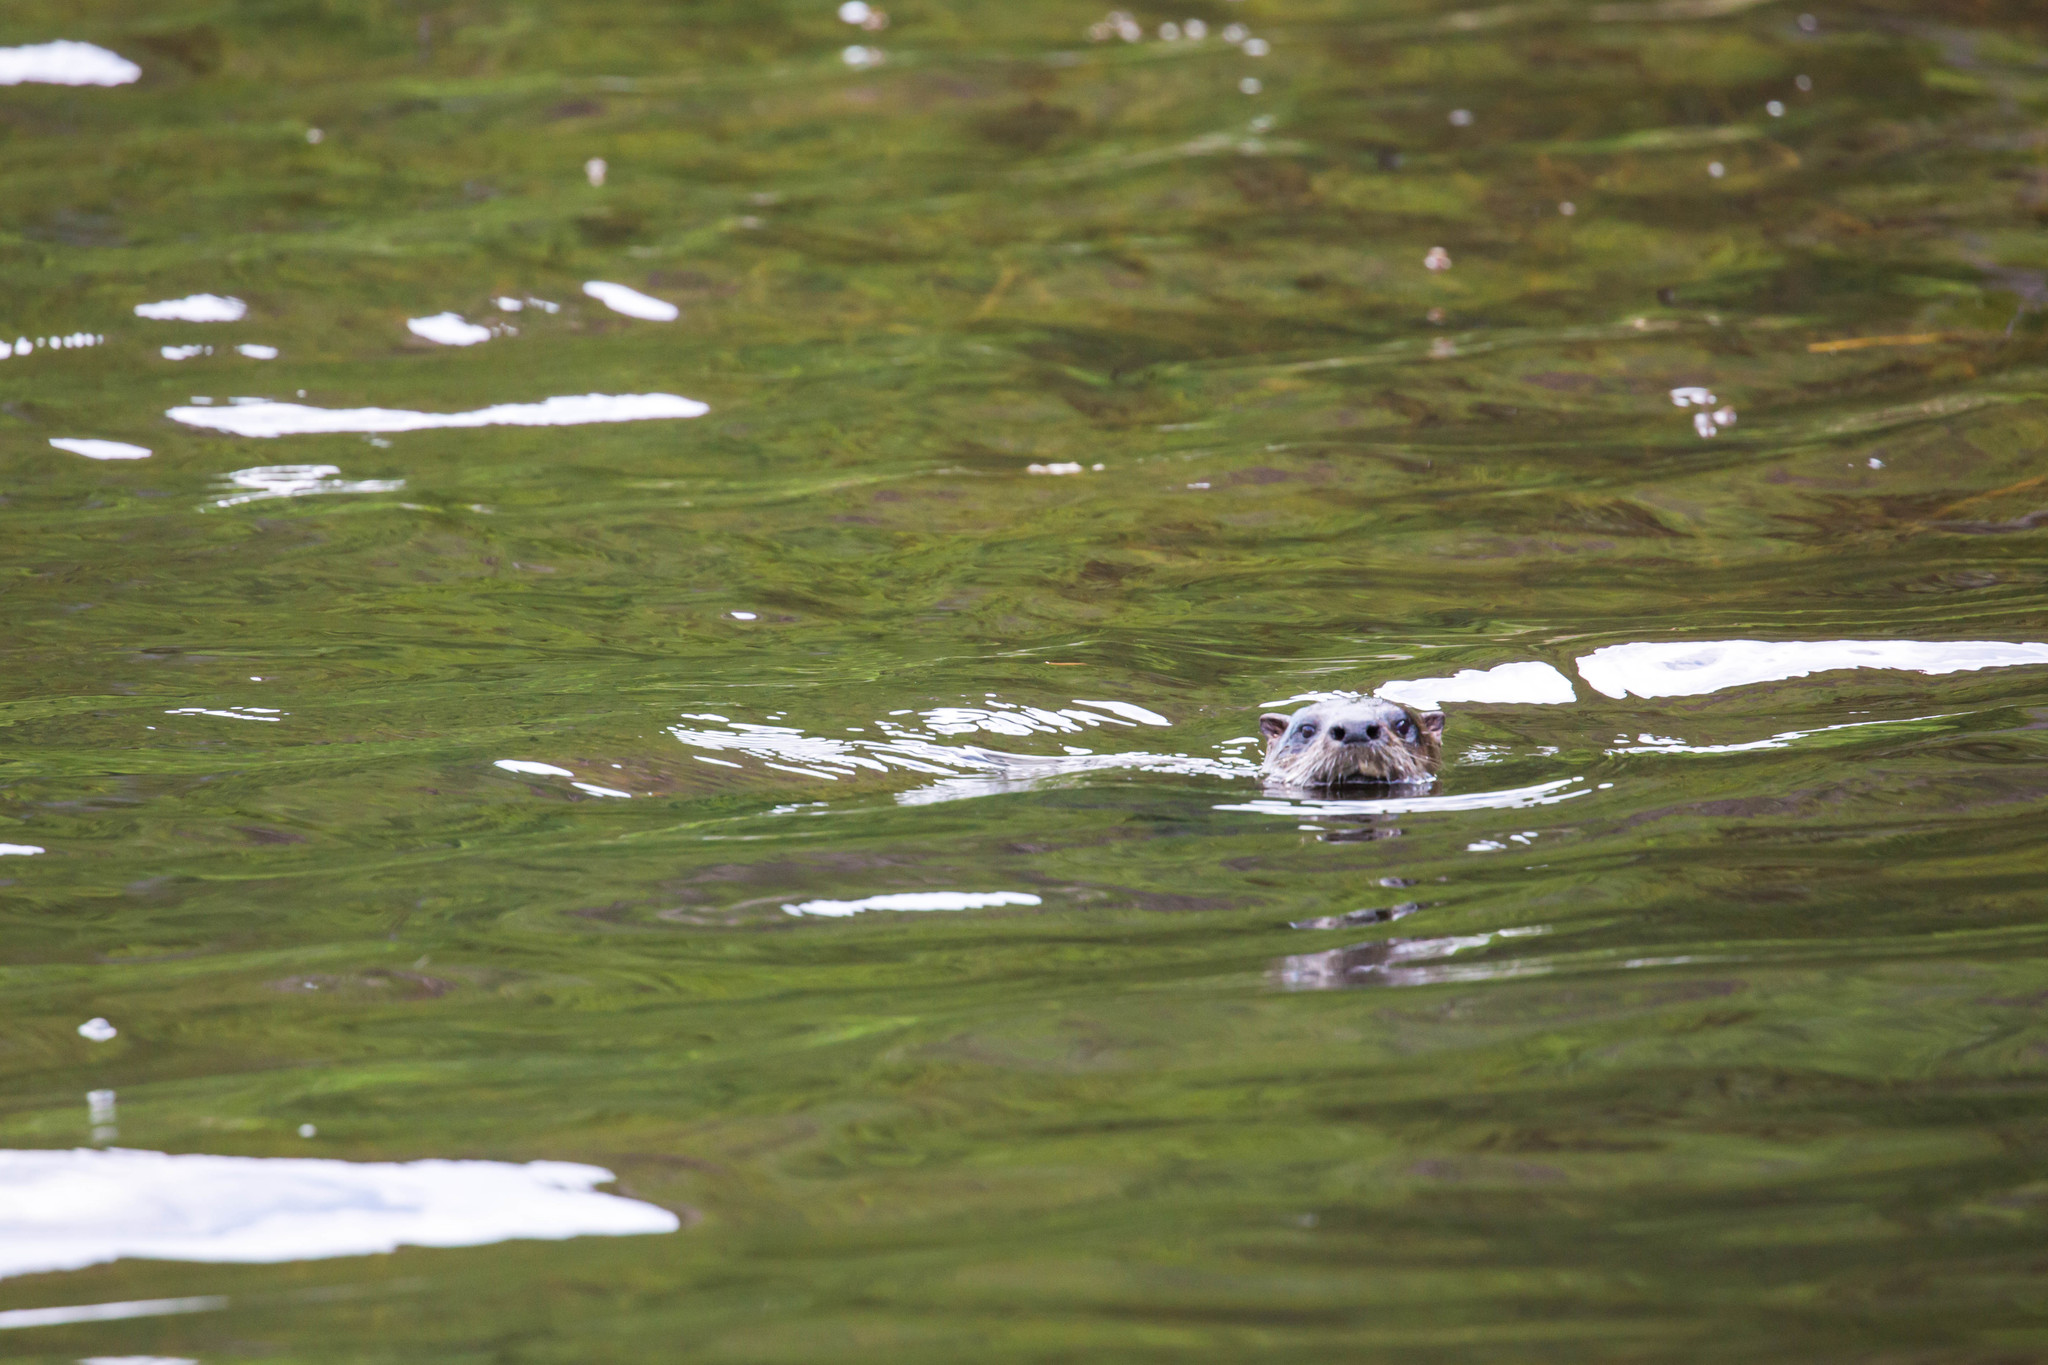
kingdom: Animalia
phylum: Chordata
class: Mammalia
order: Carnivora
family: Mustelidae
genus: Lontra
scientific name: Lontra canadensis
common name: North american river otter
